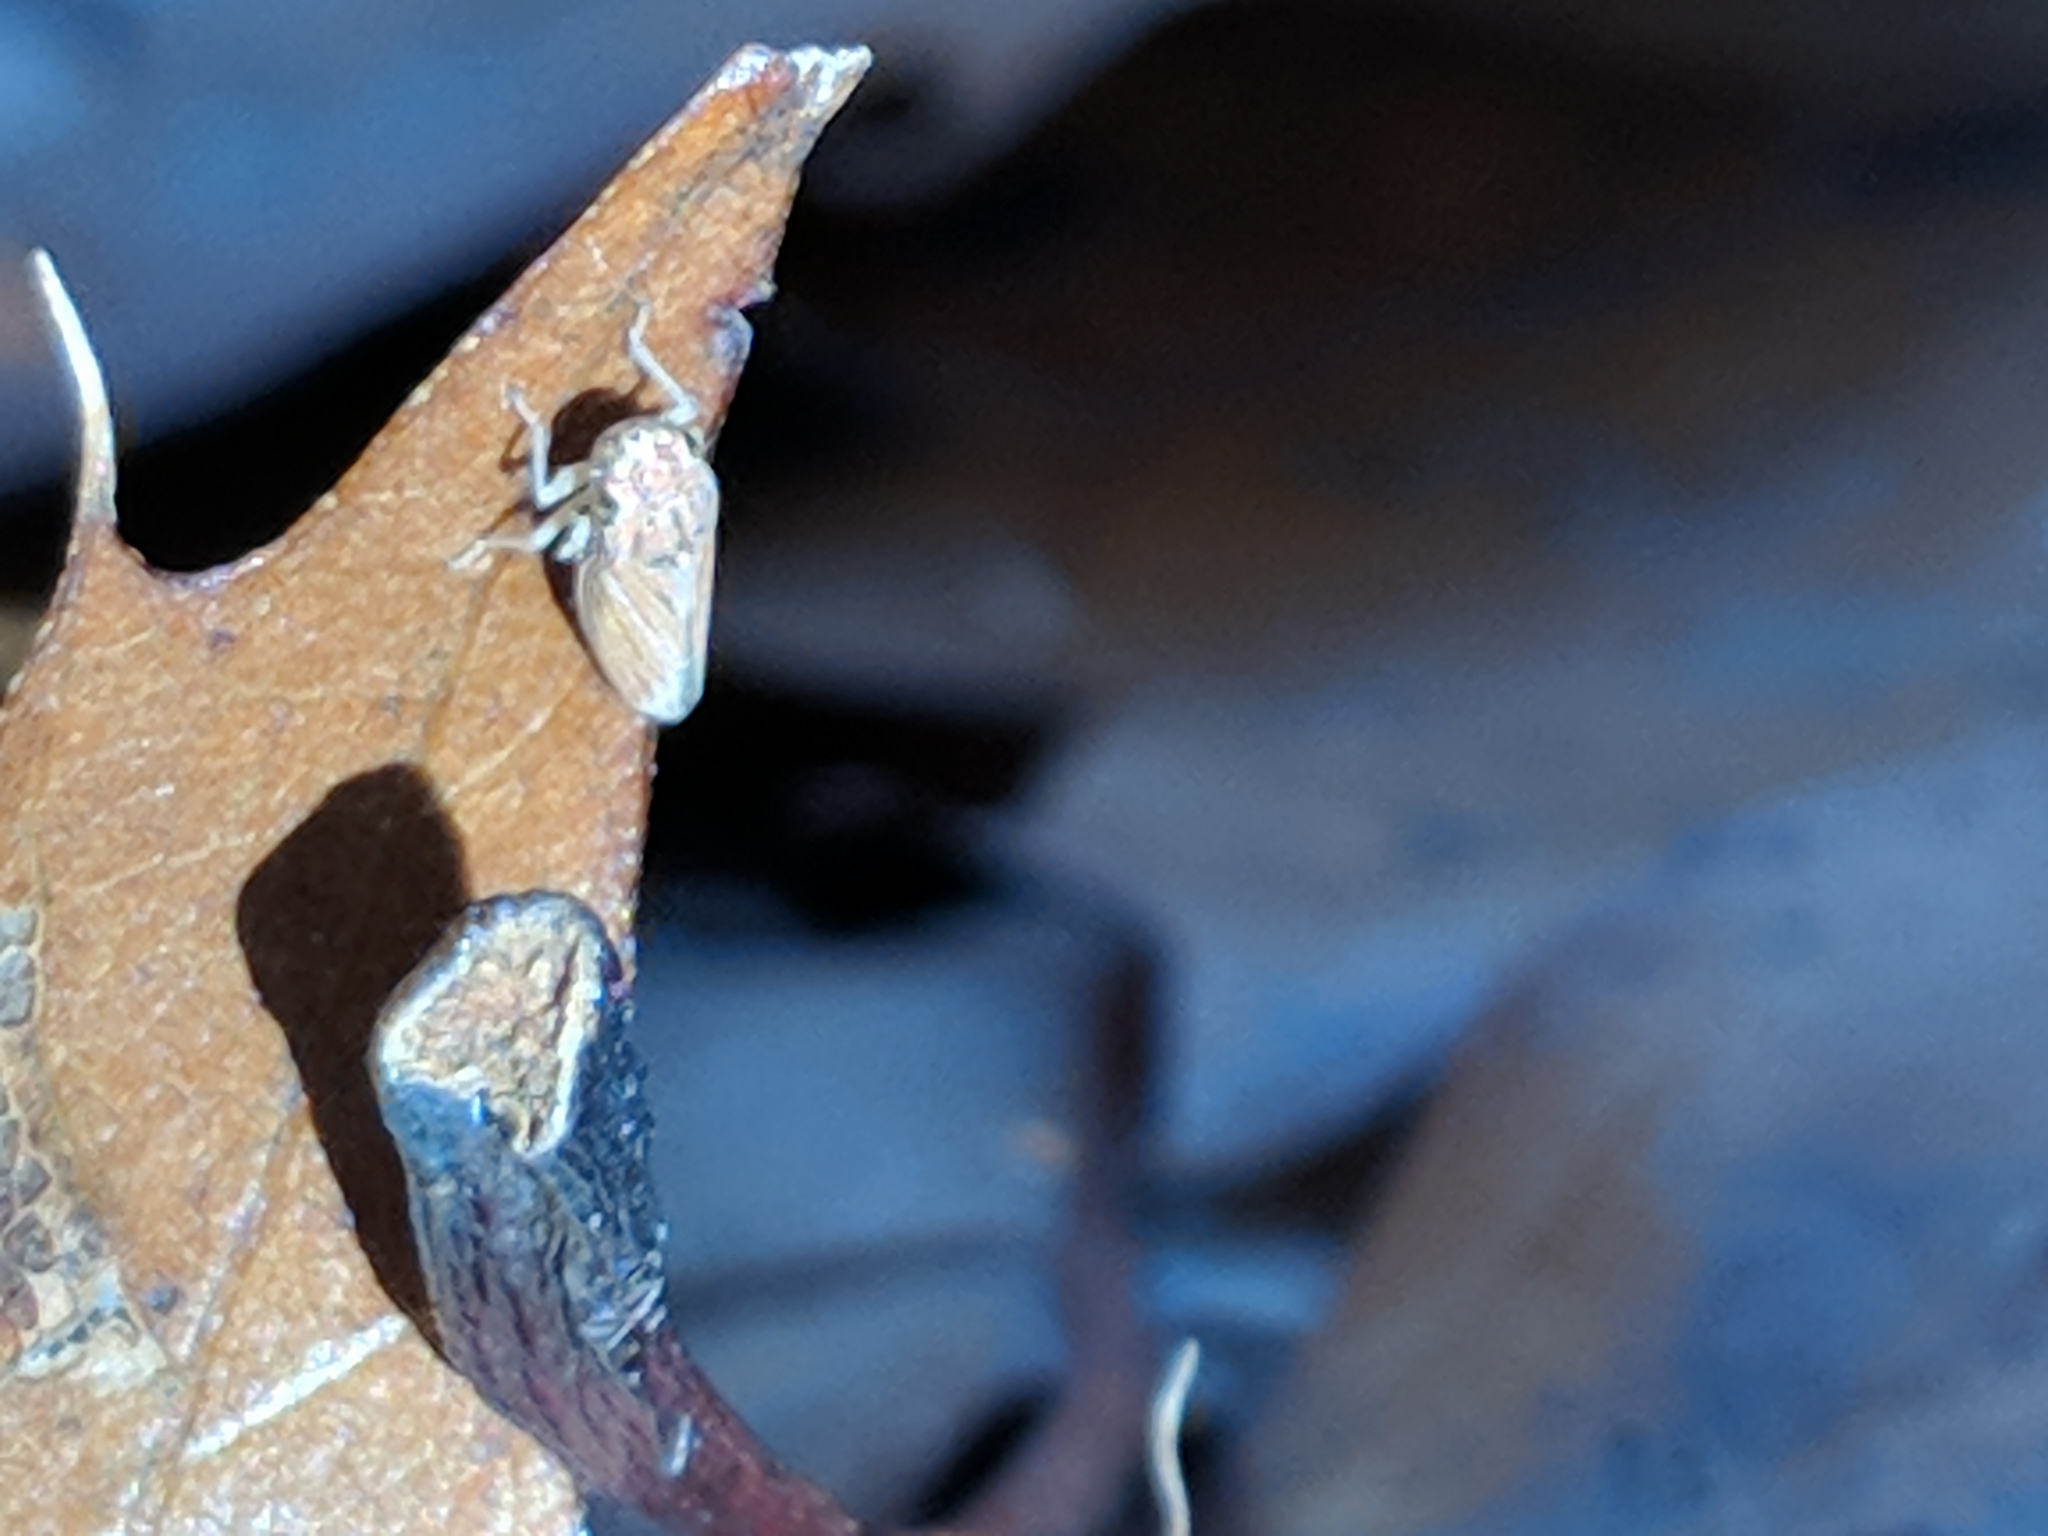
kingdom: Animalia
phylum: Arthropoda
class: Insecta
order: Hemiptera
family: Cicadellidae
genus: Neokolla
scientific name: Neokolla hieroglyphica
